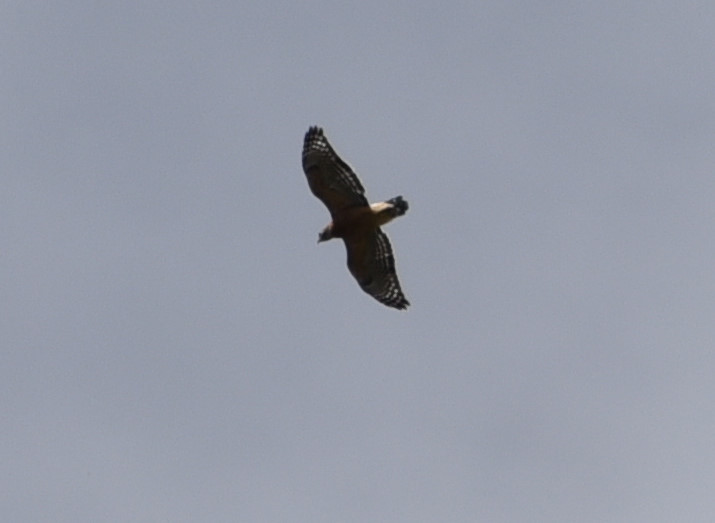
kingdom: Animalia
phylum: Chordata
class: Aves
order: Accipitriformes
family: Accipitridae
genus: Buteo
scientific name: Buteo lineatus
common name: Red-shouldered hawk
